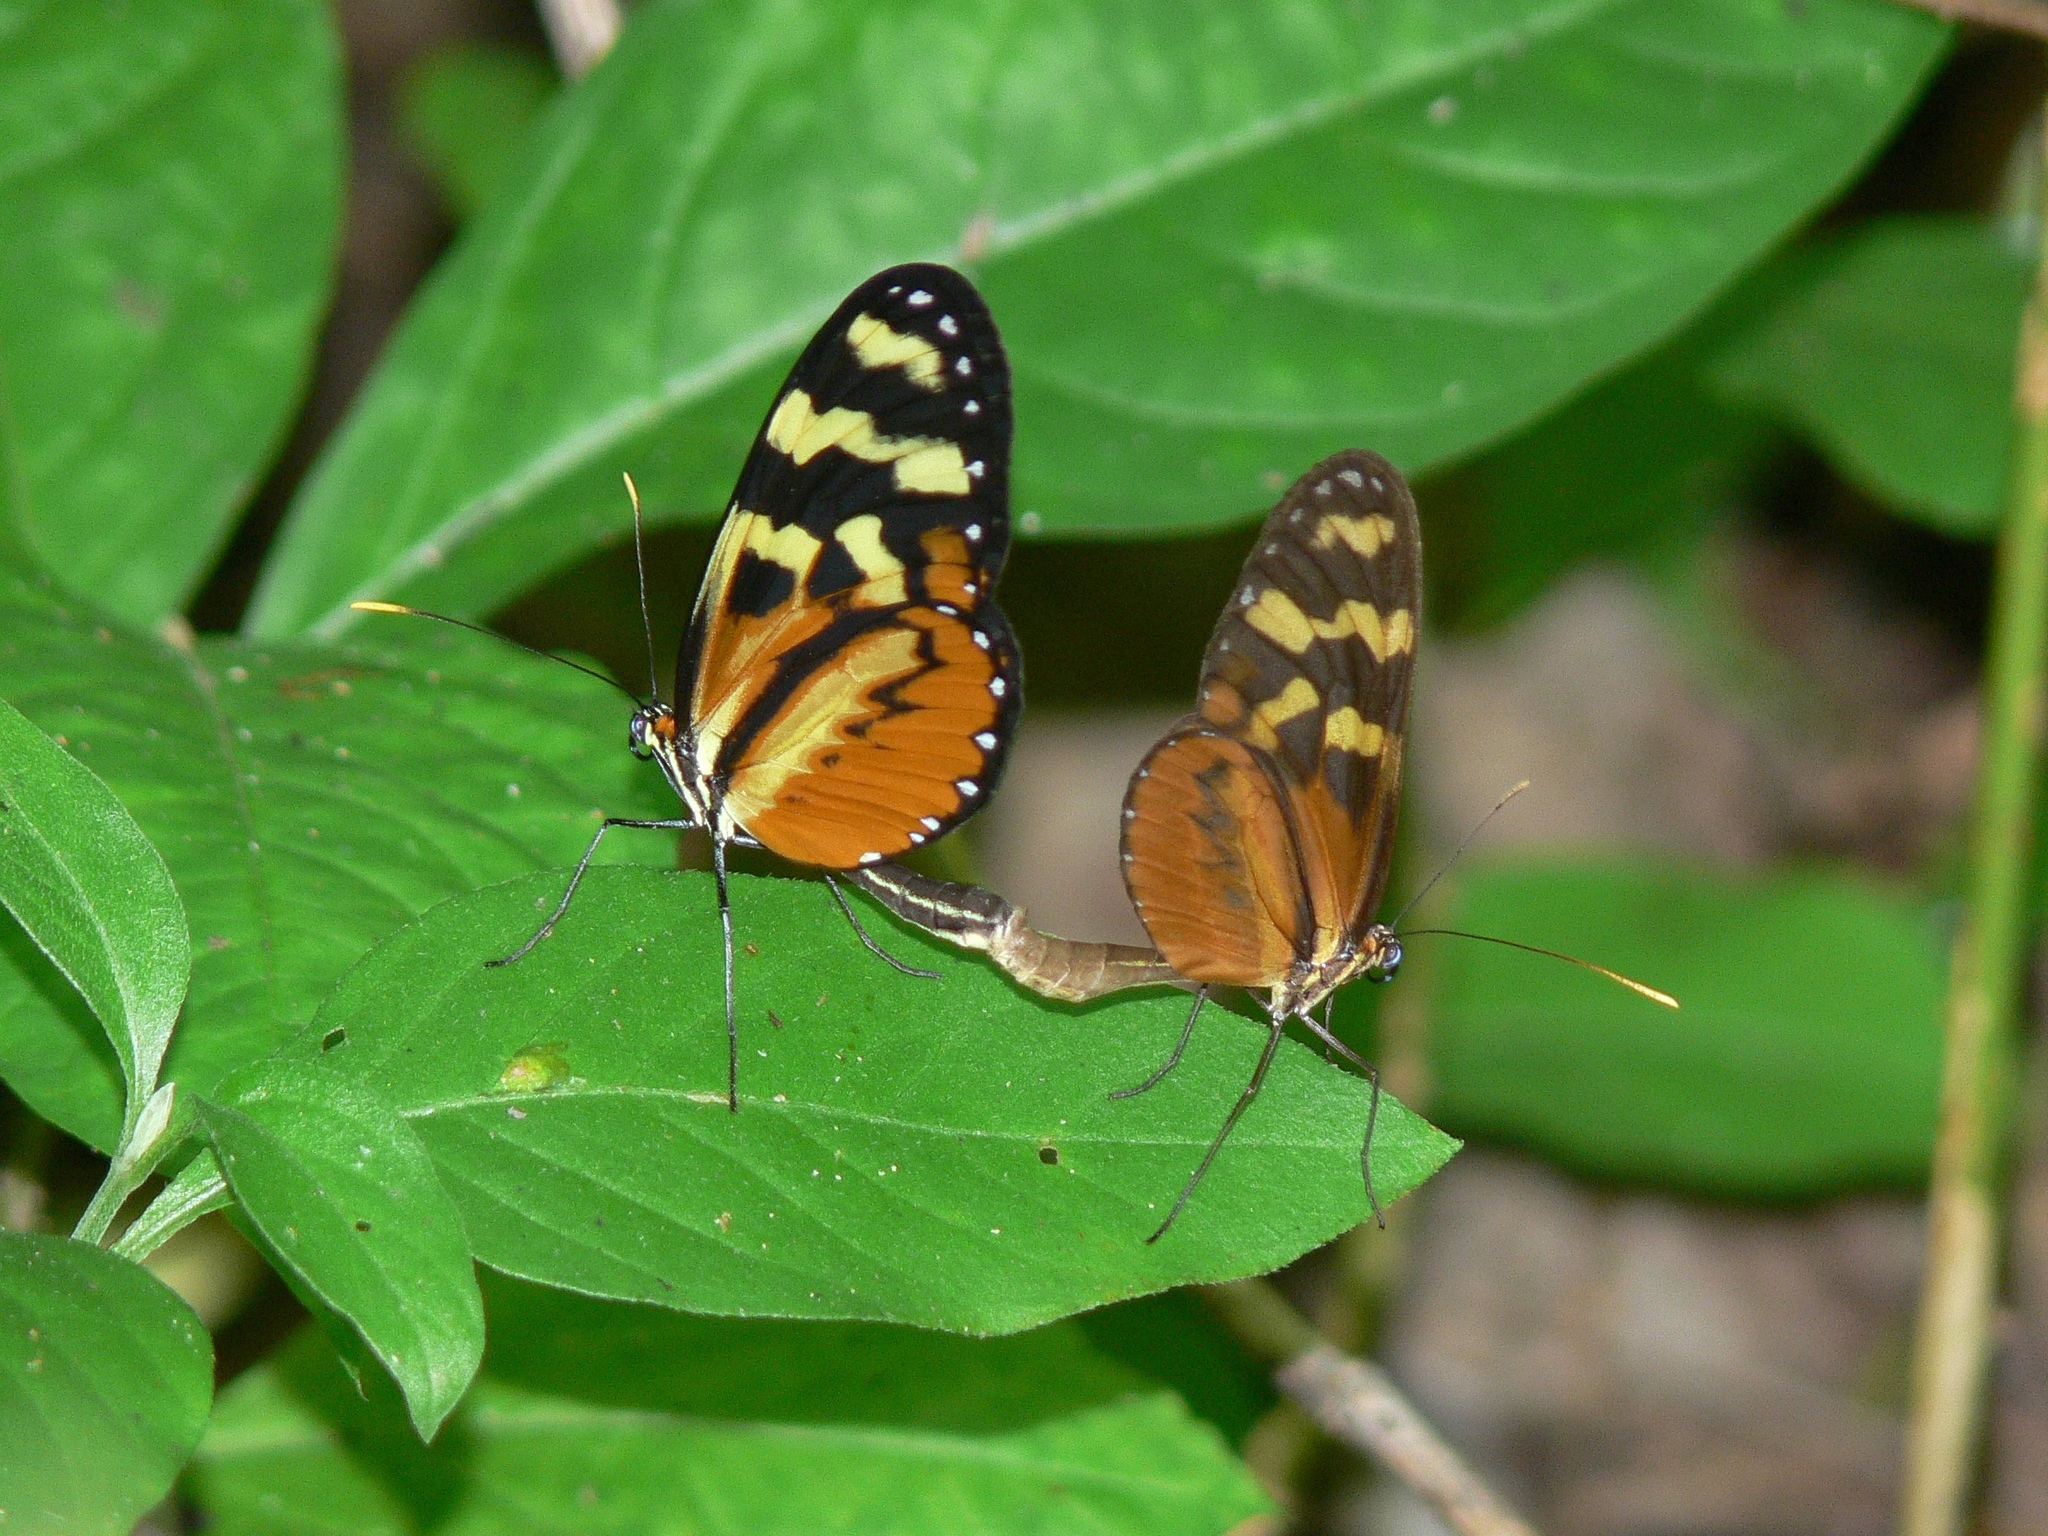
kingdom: Animalia
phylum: Arthropoda
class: Insecta
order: Lepidoptera
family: Nymphalidae
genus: Mechanitis
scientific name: Mechanitis polymnia
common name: Disturbed tigerwing
